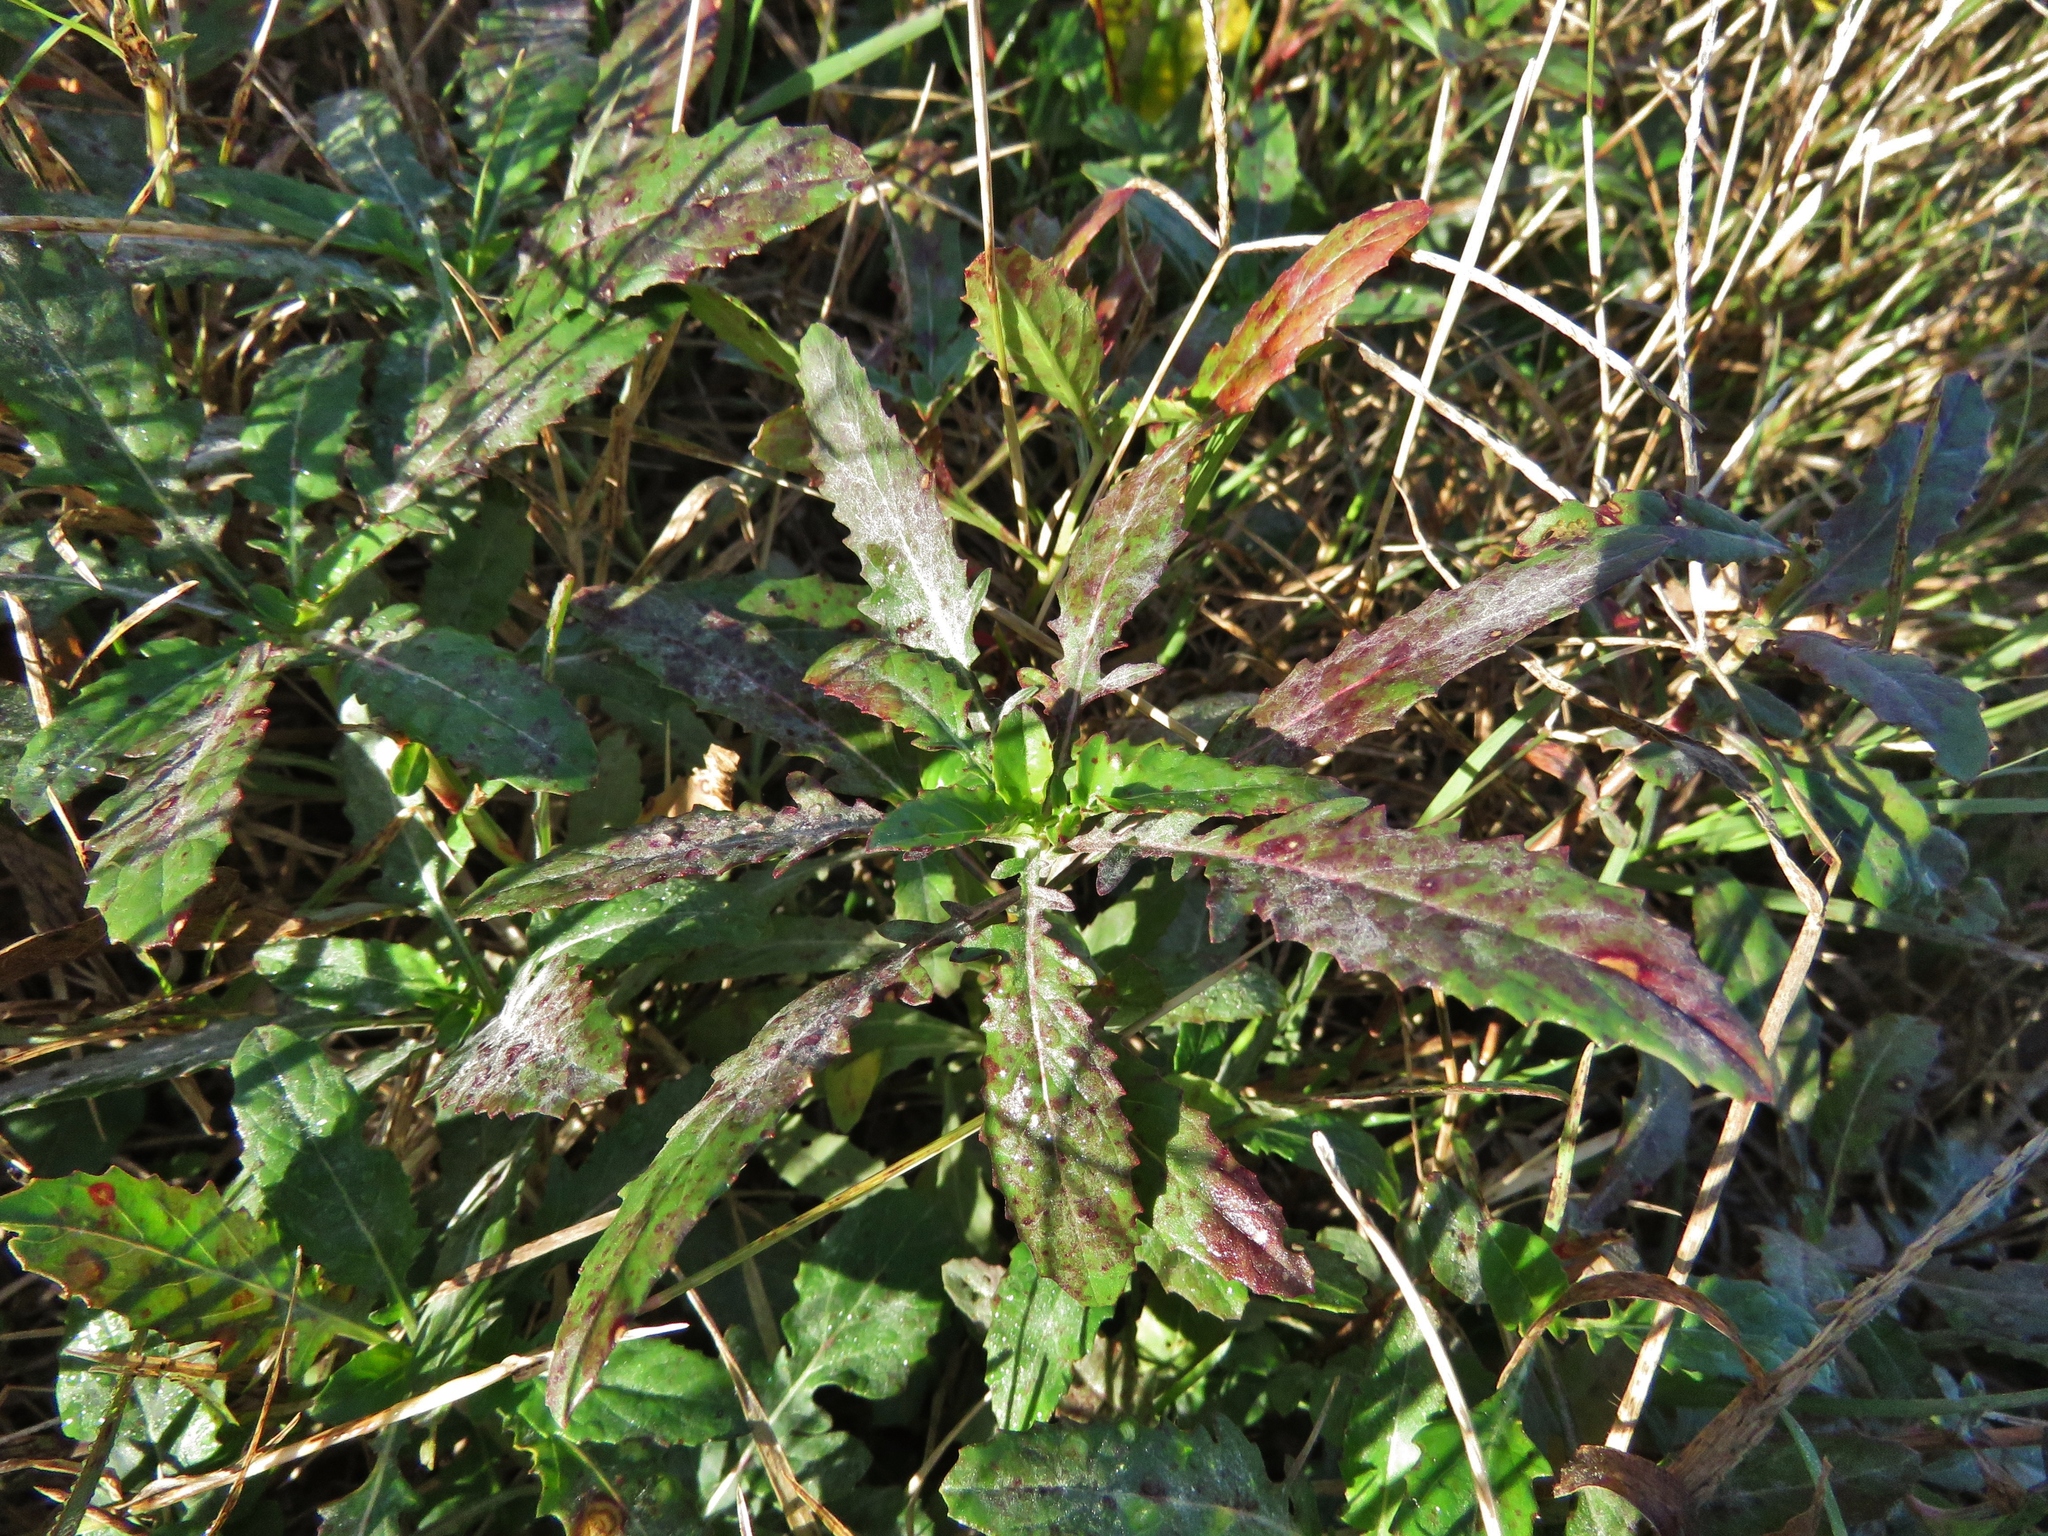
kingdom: Plantae
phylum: Tracheophyta
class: Magnoliopsida
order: Myrtales
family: Onagraceae
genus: Oenothera
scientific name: Oenothera speciosa
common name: White evening-primrose
